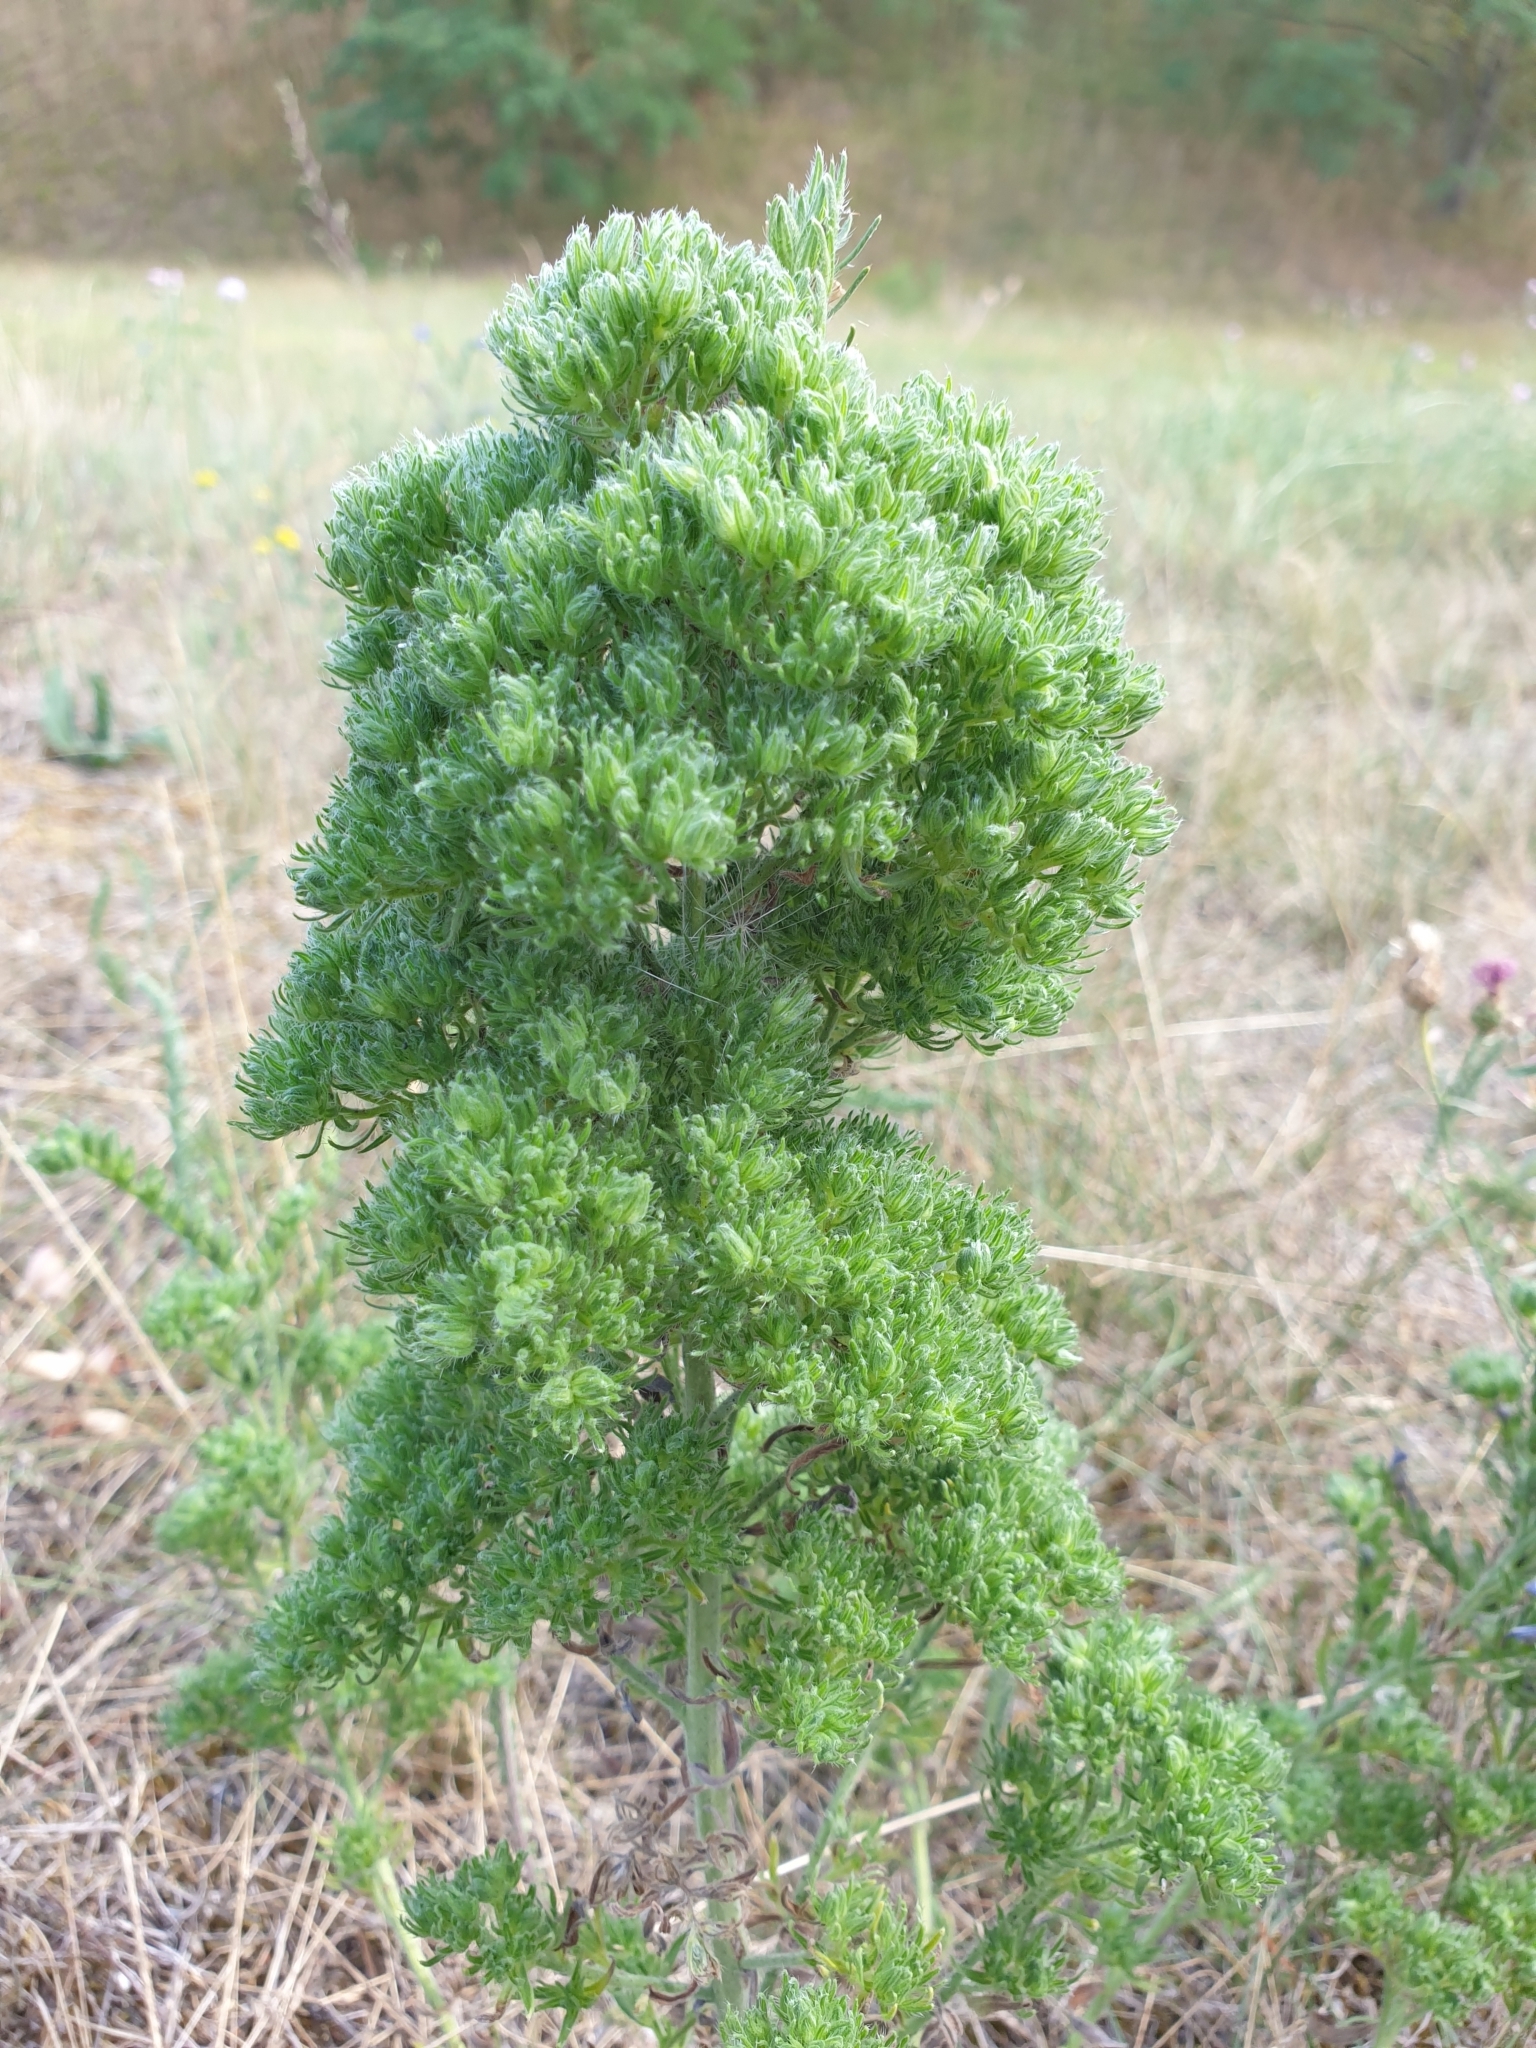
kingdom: Plantae
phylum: Tracheophyta
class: Magnoliopsida
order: Boraginales
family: Boraginaceae
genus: Echium
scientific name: Echium vulgare
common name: Common viper's bugloss
